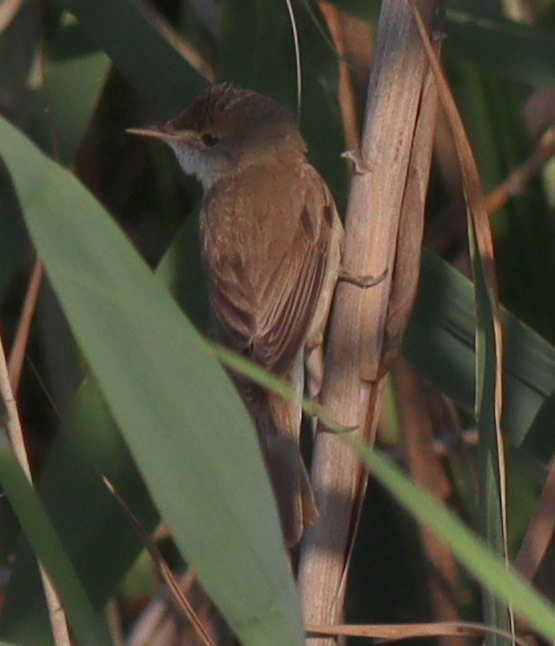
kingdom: Animalia
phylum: Chordata
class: Aves
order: Passeriformes
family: Acrocephalidae
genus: Acrocephalus
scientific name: Acrocephalus scirpaceus
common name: Eurasian reed warbler
